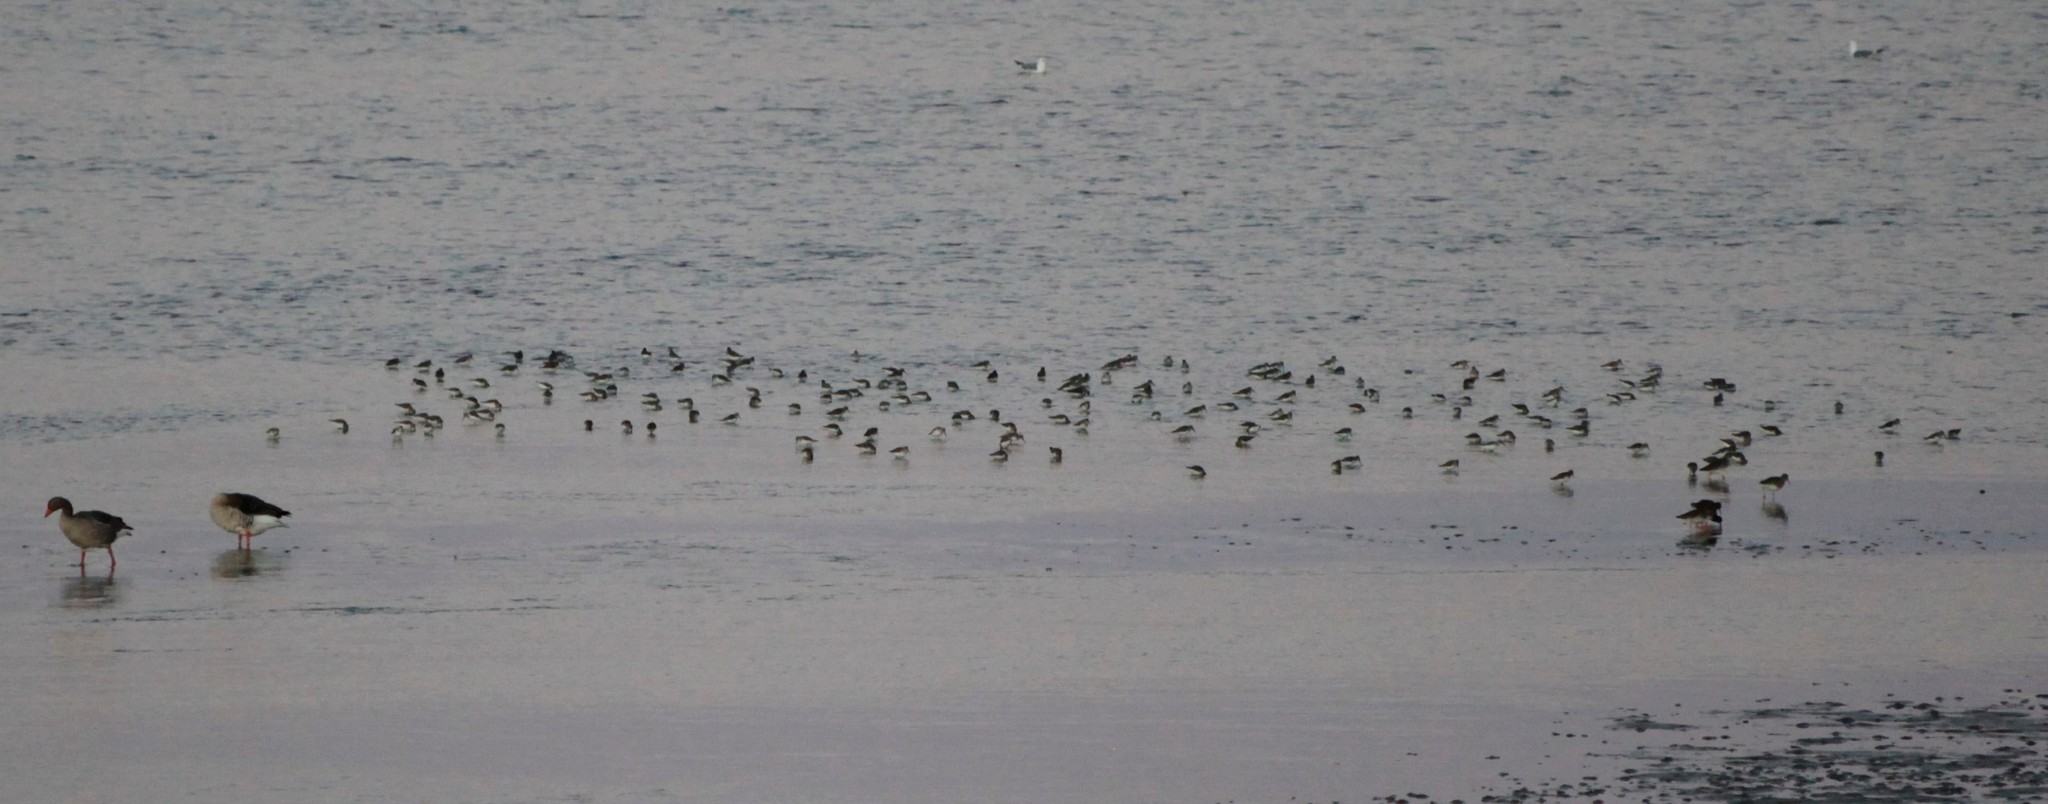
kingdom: Animalia
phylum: Chordata
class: Aves
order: Charadriiformes
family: Scolopacidae
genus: Calidris
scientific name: Calidris alpina
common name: Dunlin
